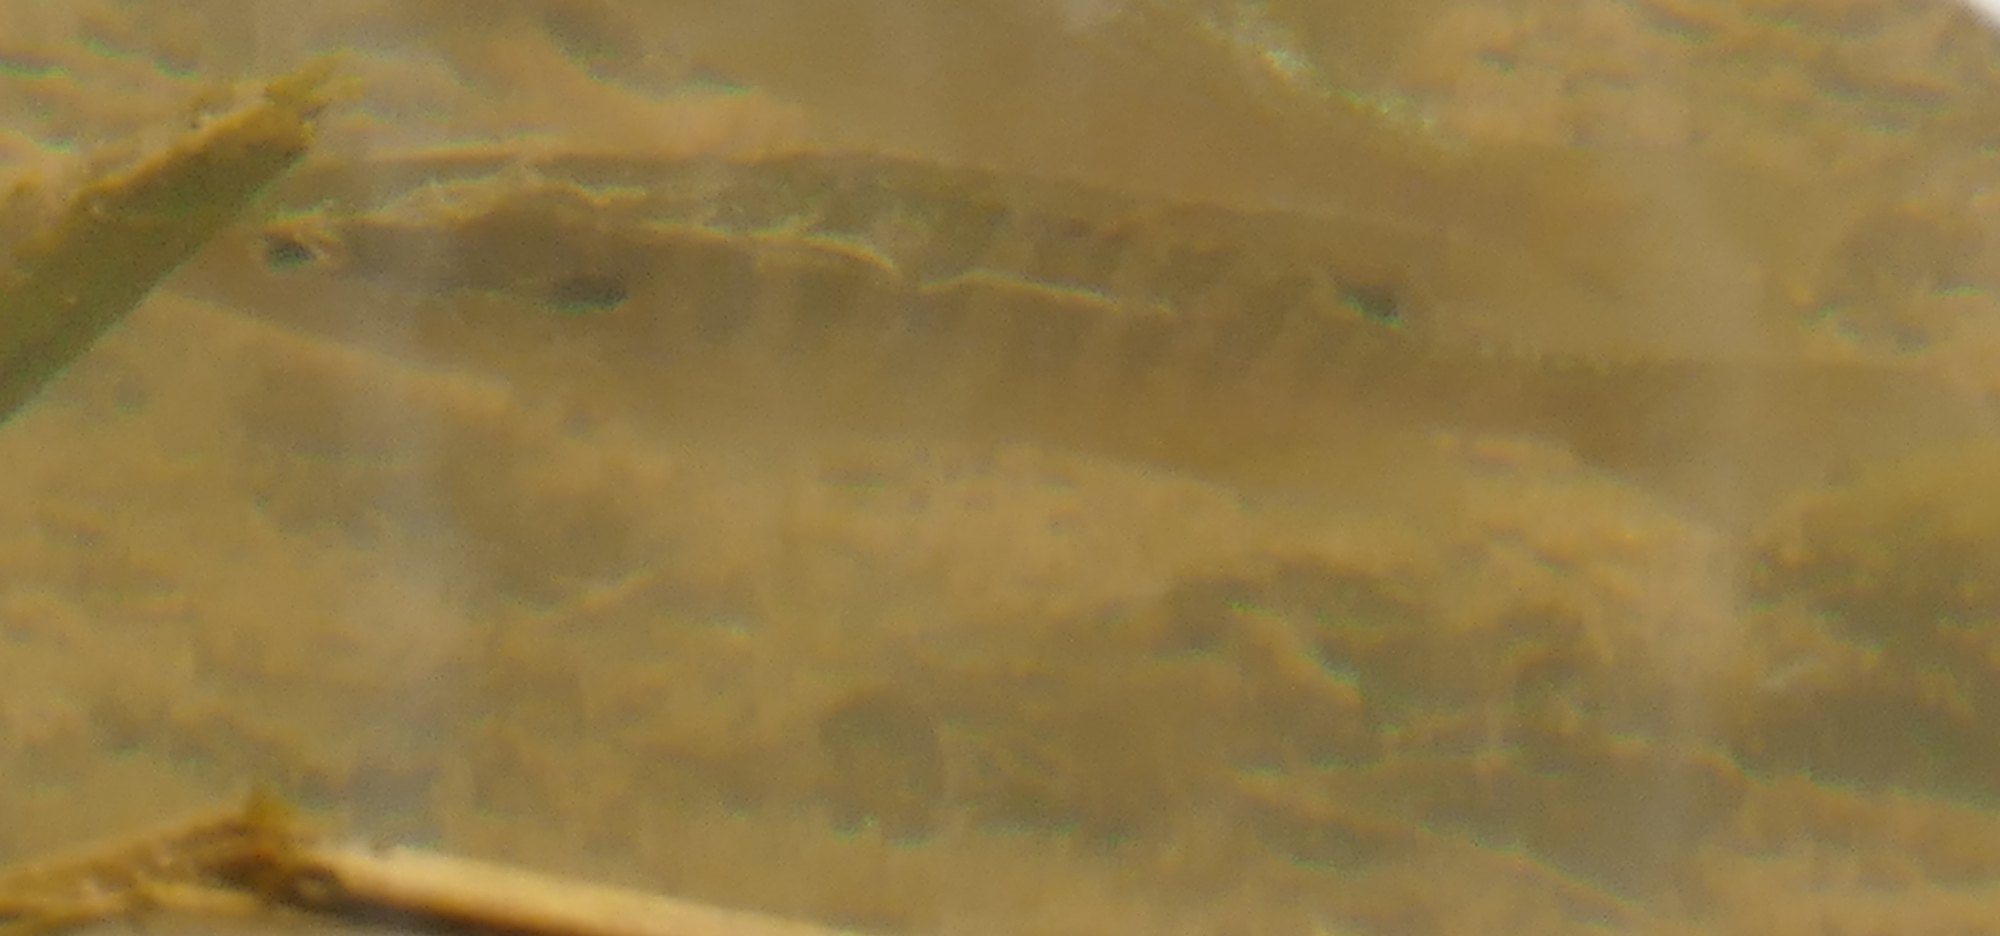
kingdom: Animalia
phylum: Chordata
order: Perciformes
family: Centrarchidae
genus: Lepomis
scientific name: Lepomis macrochirus
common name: Bluegill
